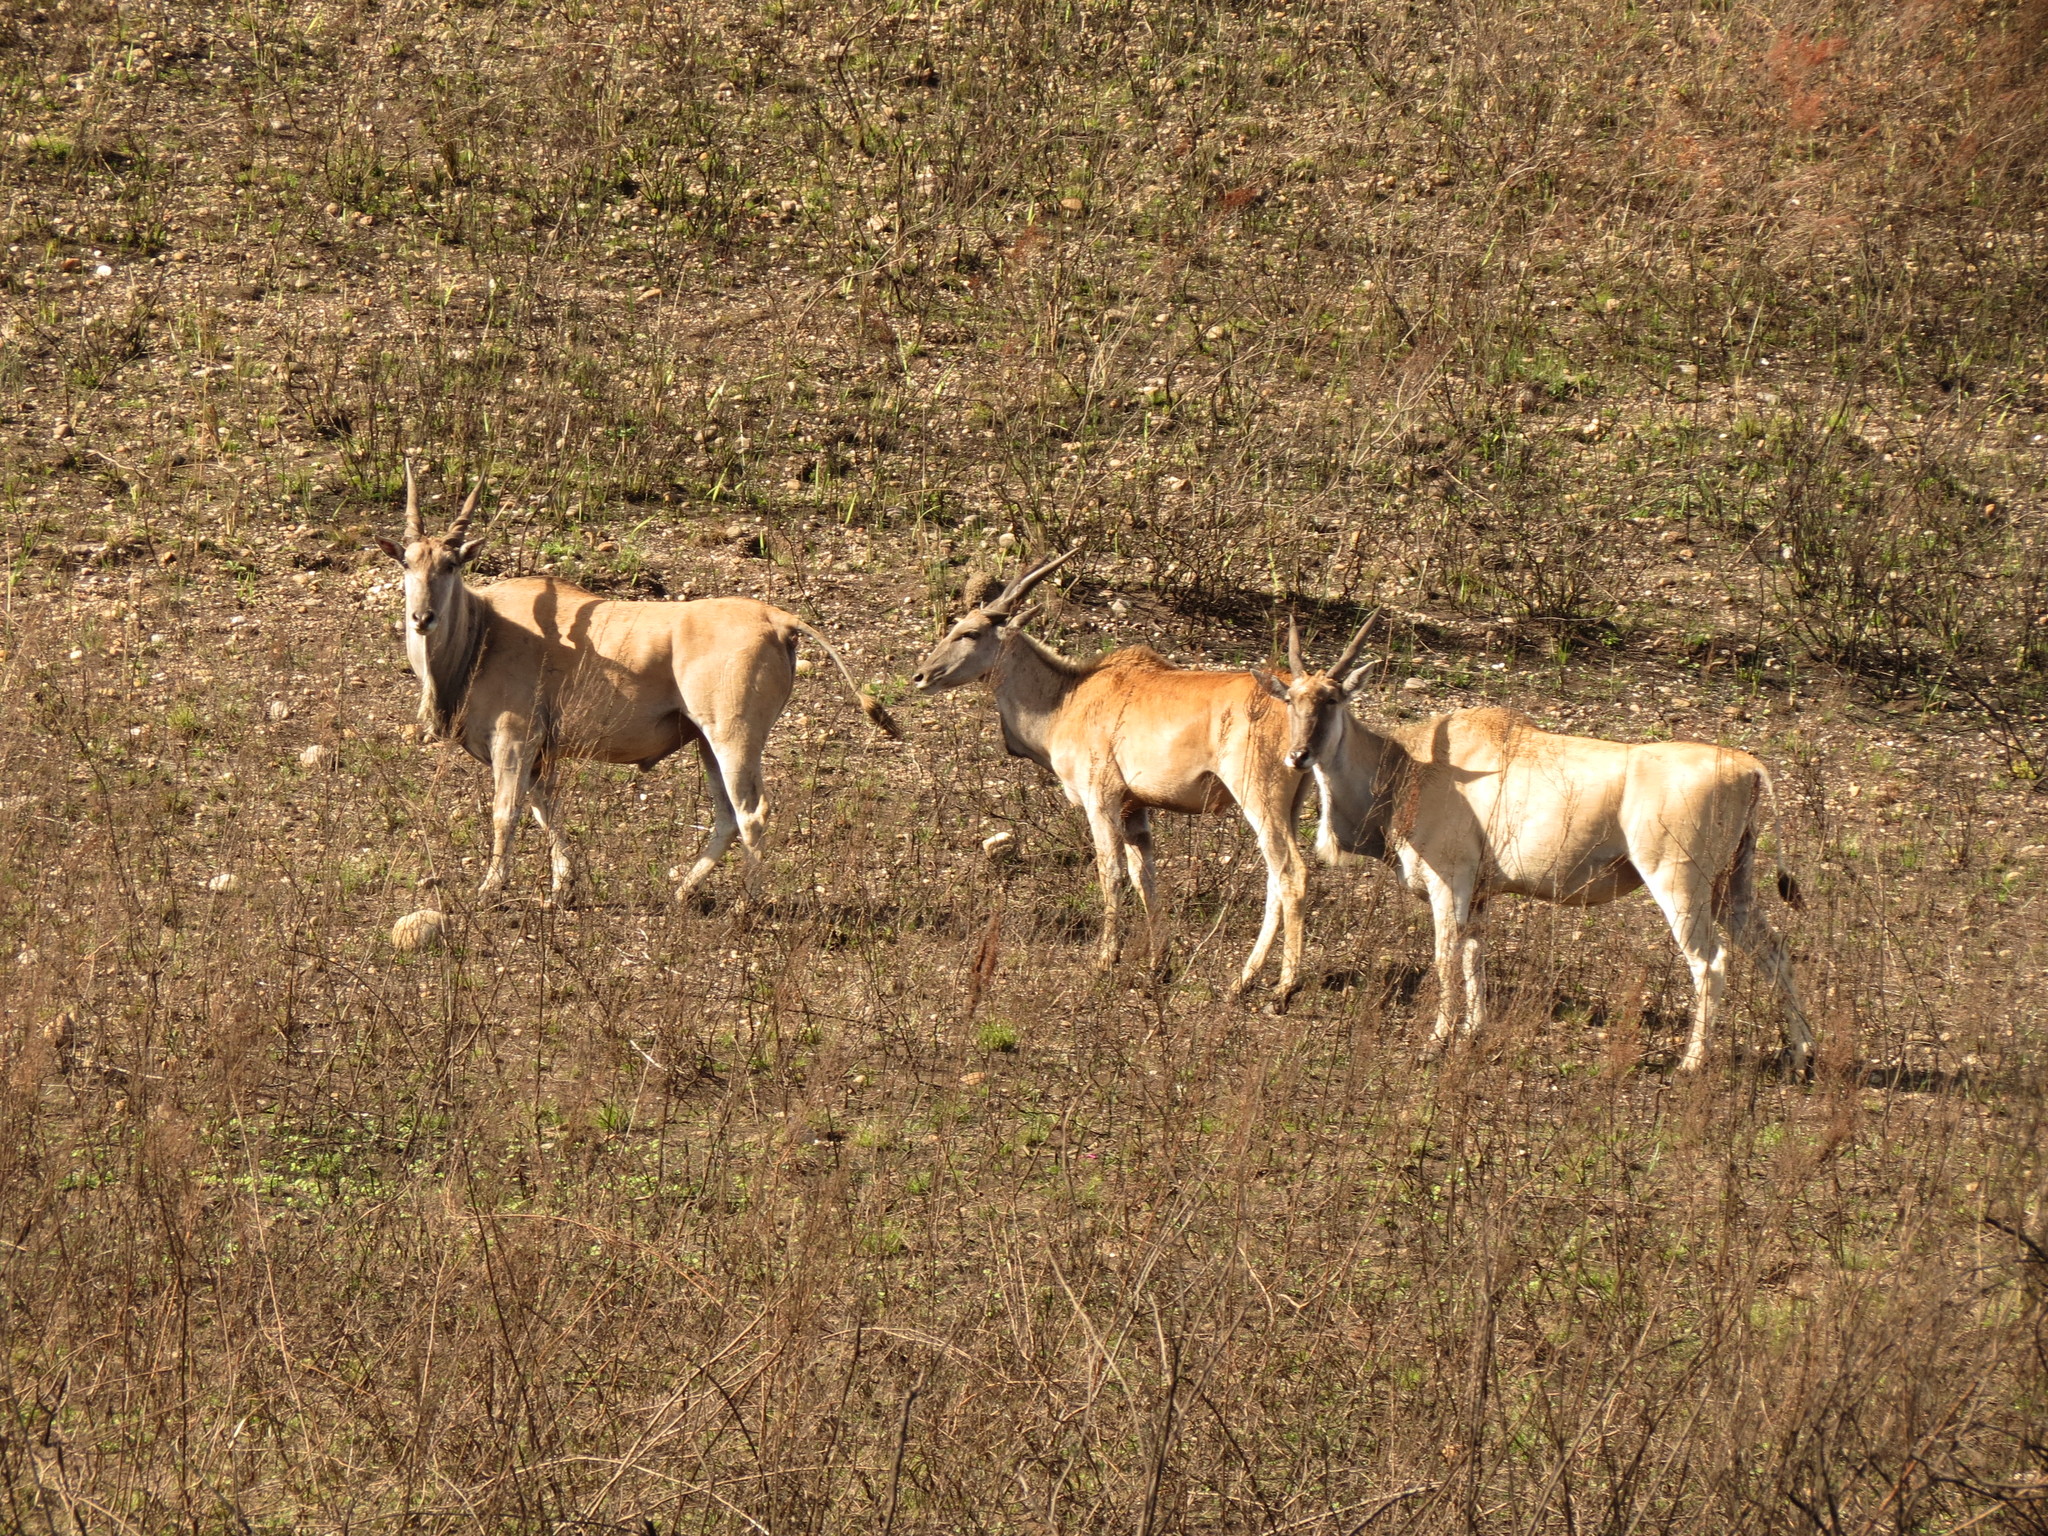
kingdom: Animalia
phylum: Chordata
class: Mammalia
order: Artiodactyla
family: Bovidae
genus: Taurotragus
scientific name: Taurotragus oryx
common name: Common eland
